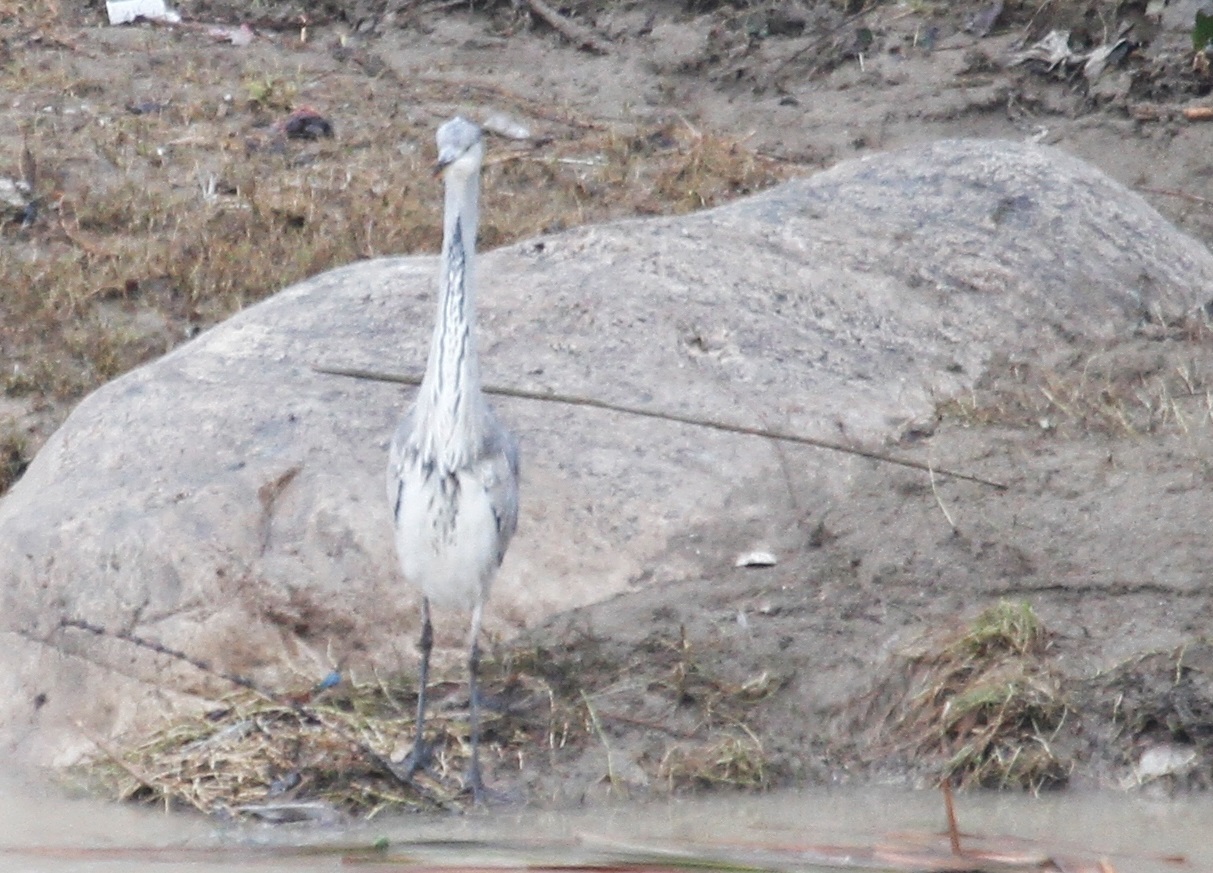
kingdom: Animalia
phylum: Chordata
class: Aves
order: Pelecaniformes
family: Ardeidae
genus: Ardea
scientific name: Ardea cinerea
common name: Grey heron
